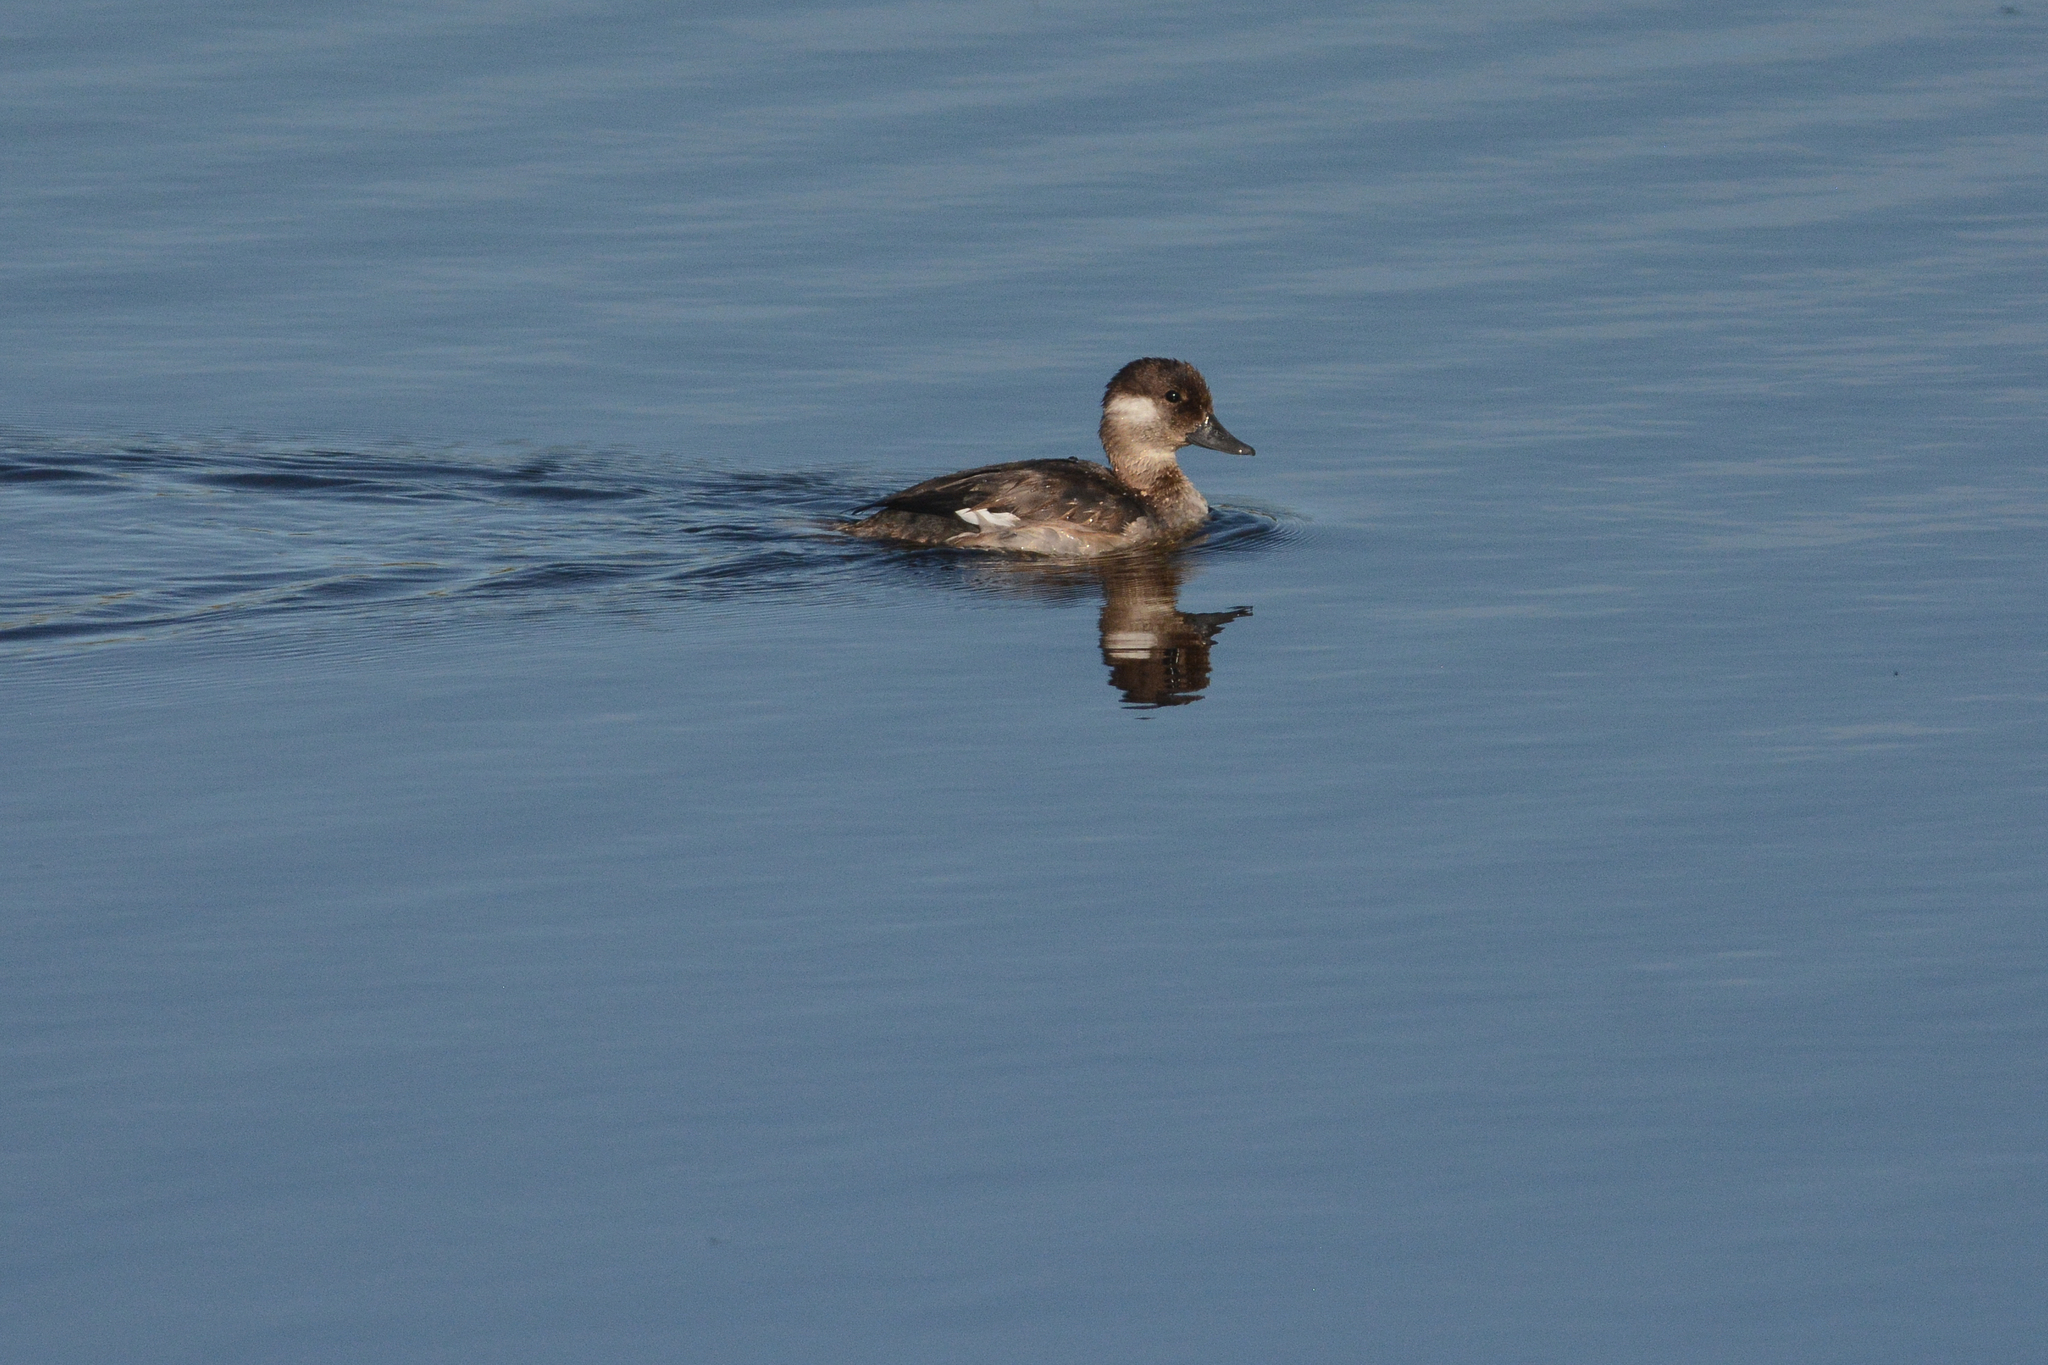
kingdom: Animalia
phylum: Chordata
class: Aves
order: Anseriformes
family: Anatidae
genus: Bucephala
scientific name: Bucephala albeola
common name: Bufflehead
